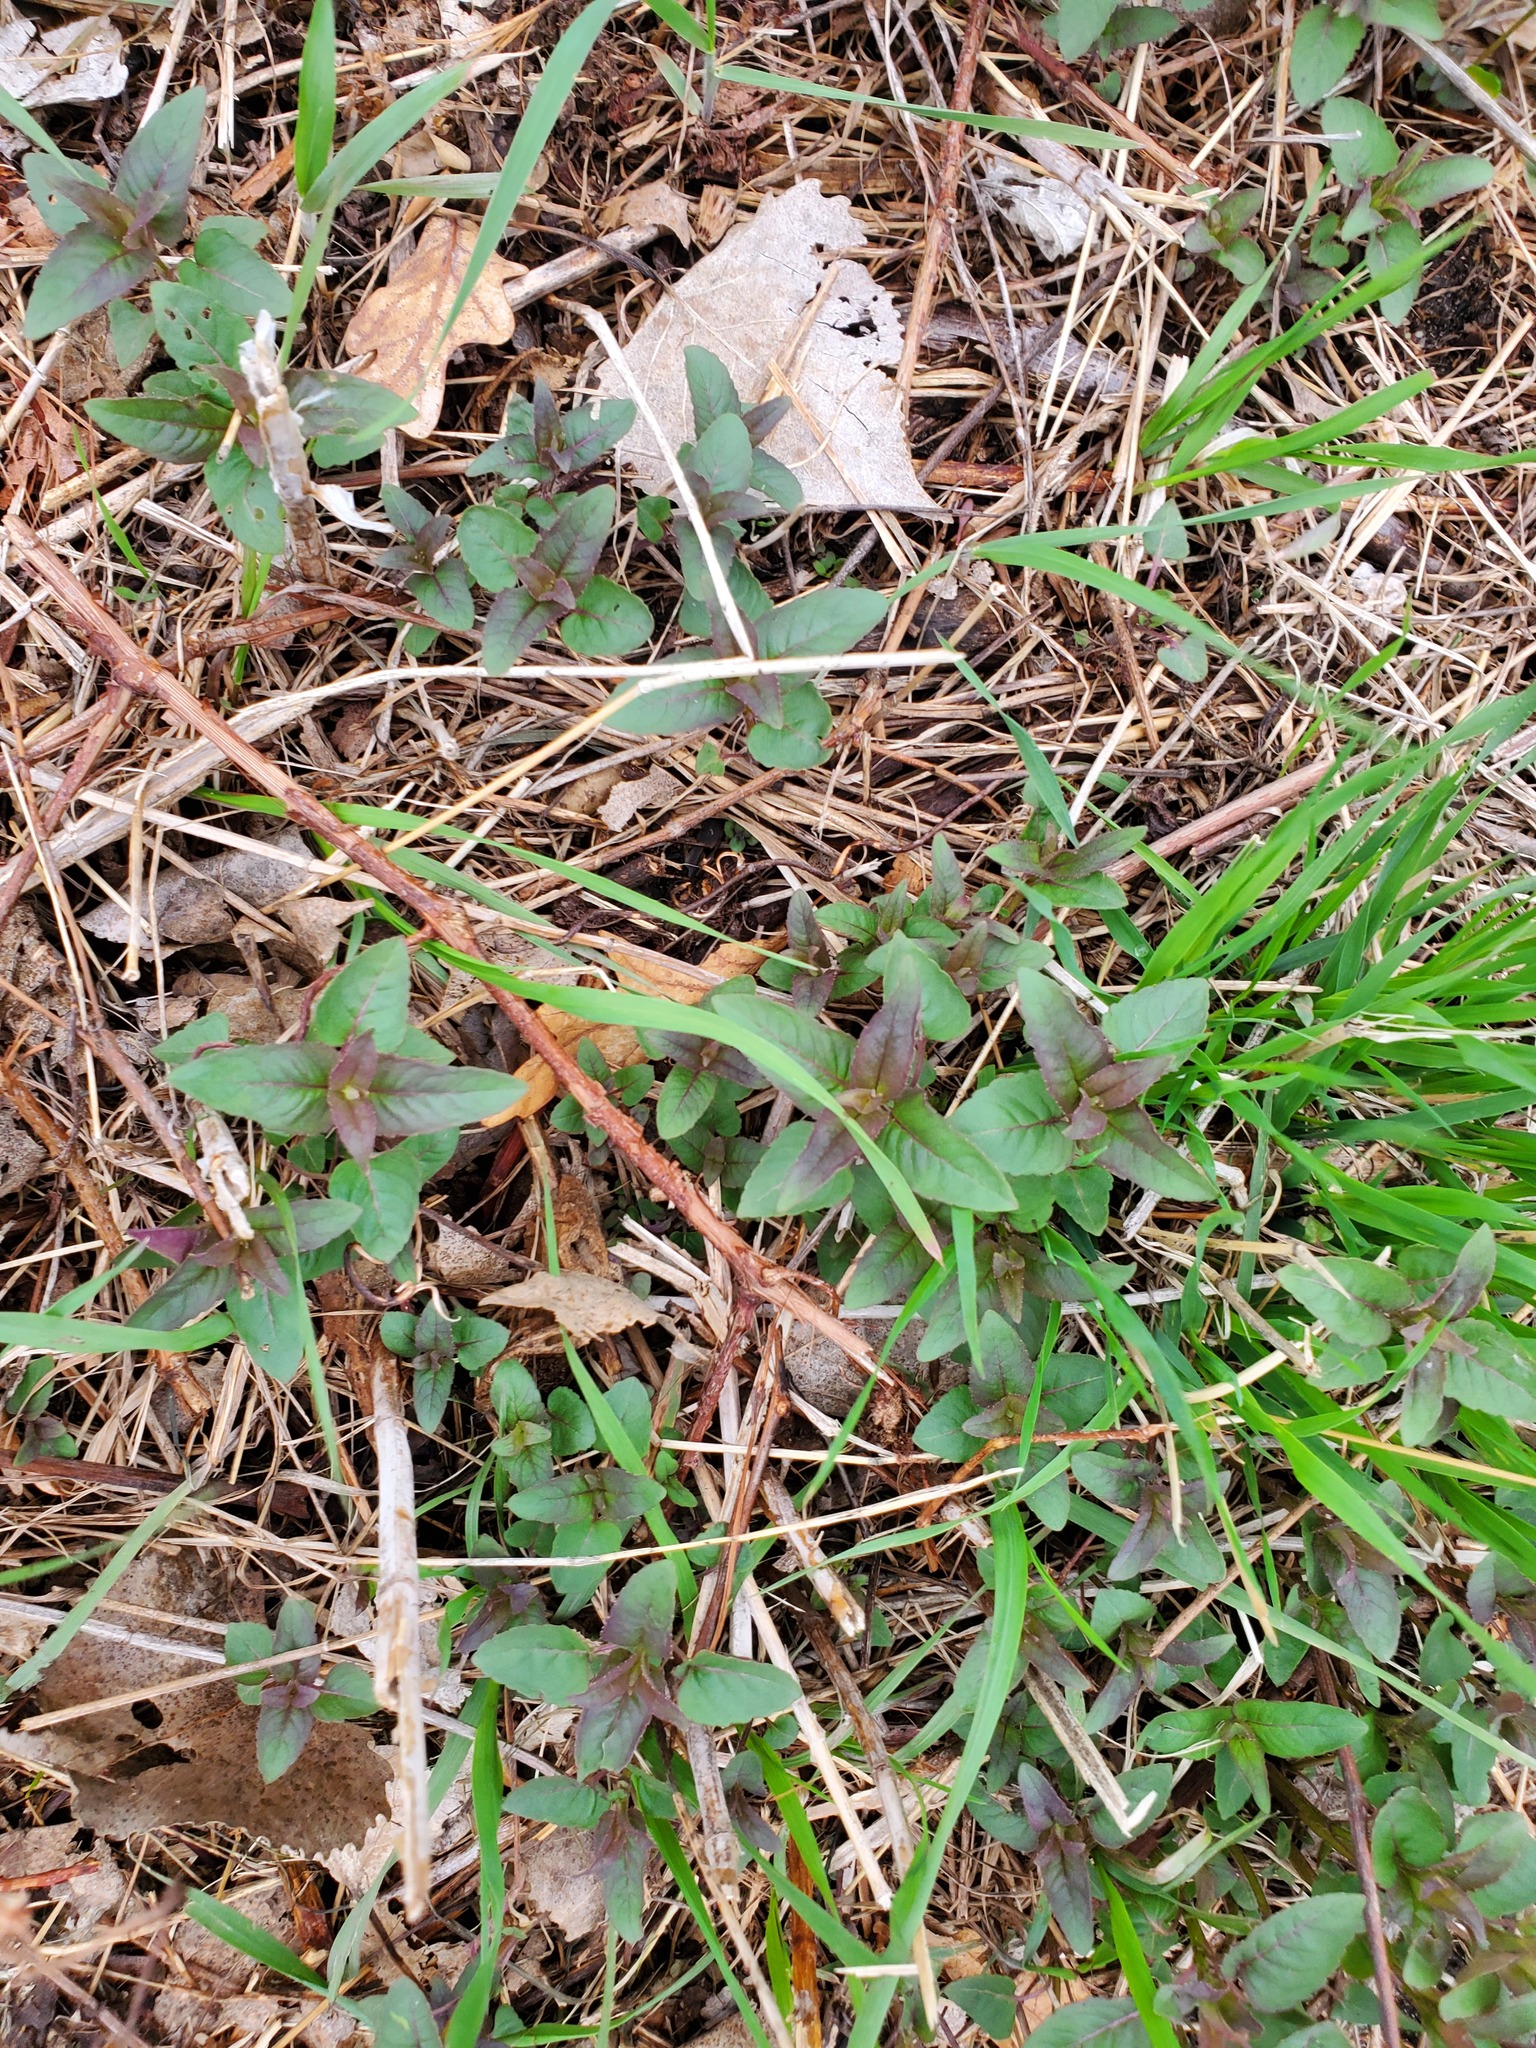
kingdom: Plantae
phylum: Tracheophyta
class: Magnoliopsida
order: Lamiales
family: Lamiaceae
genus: Monarda
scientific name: Monarda fistulosa
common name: Purple beebalm
